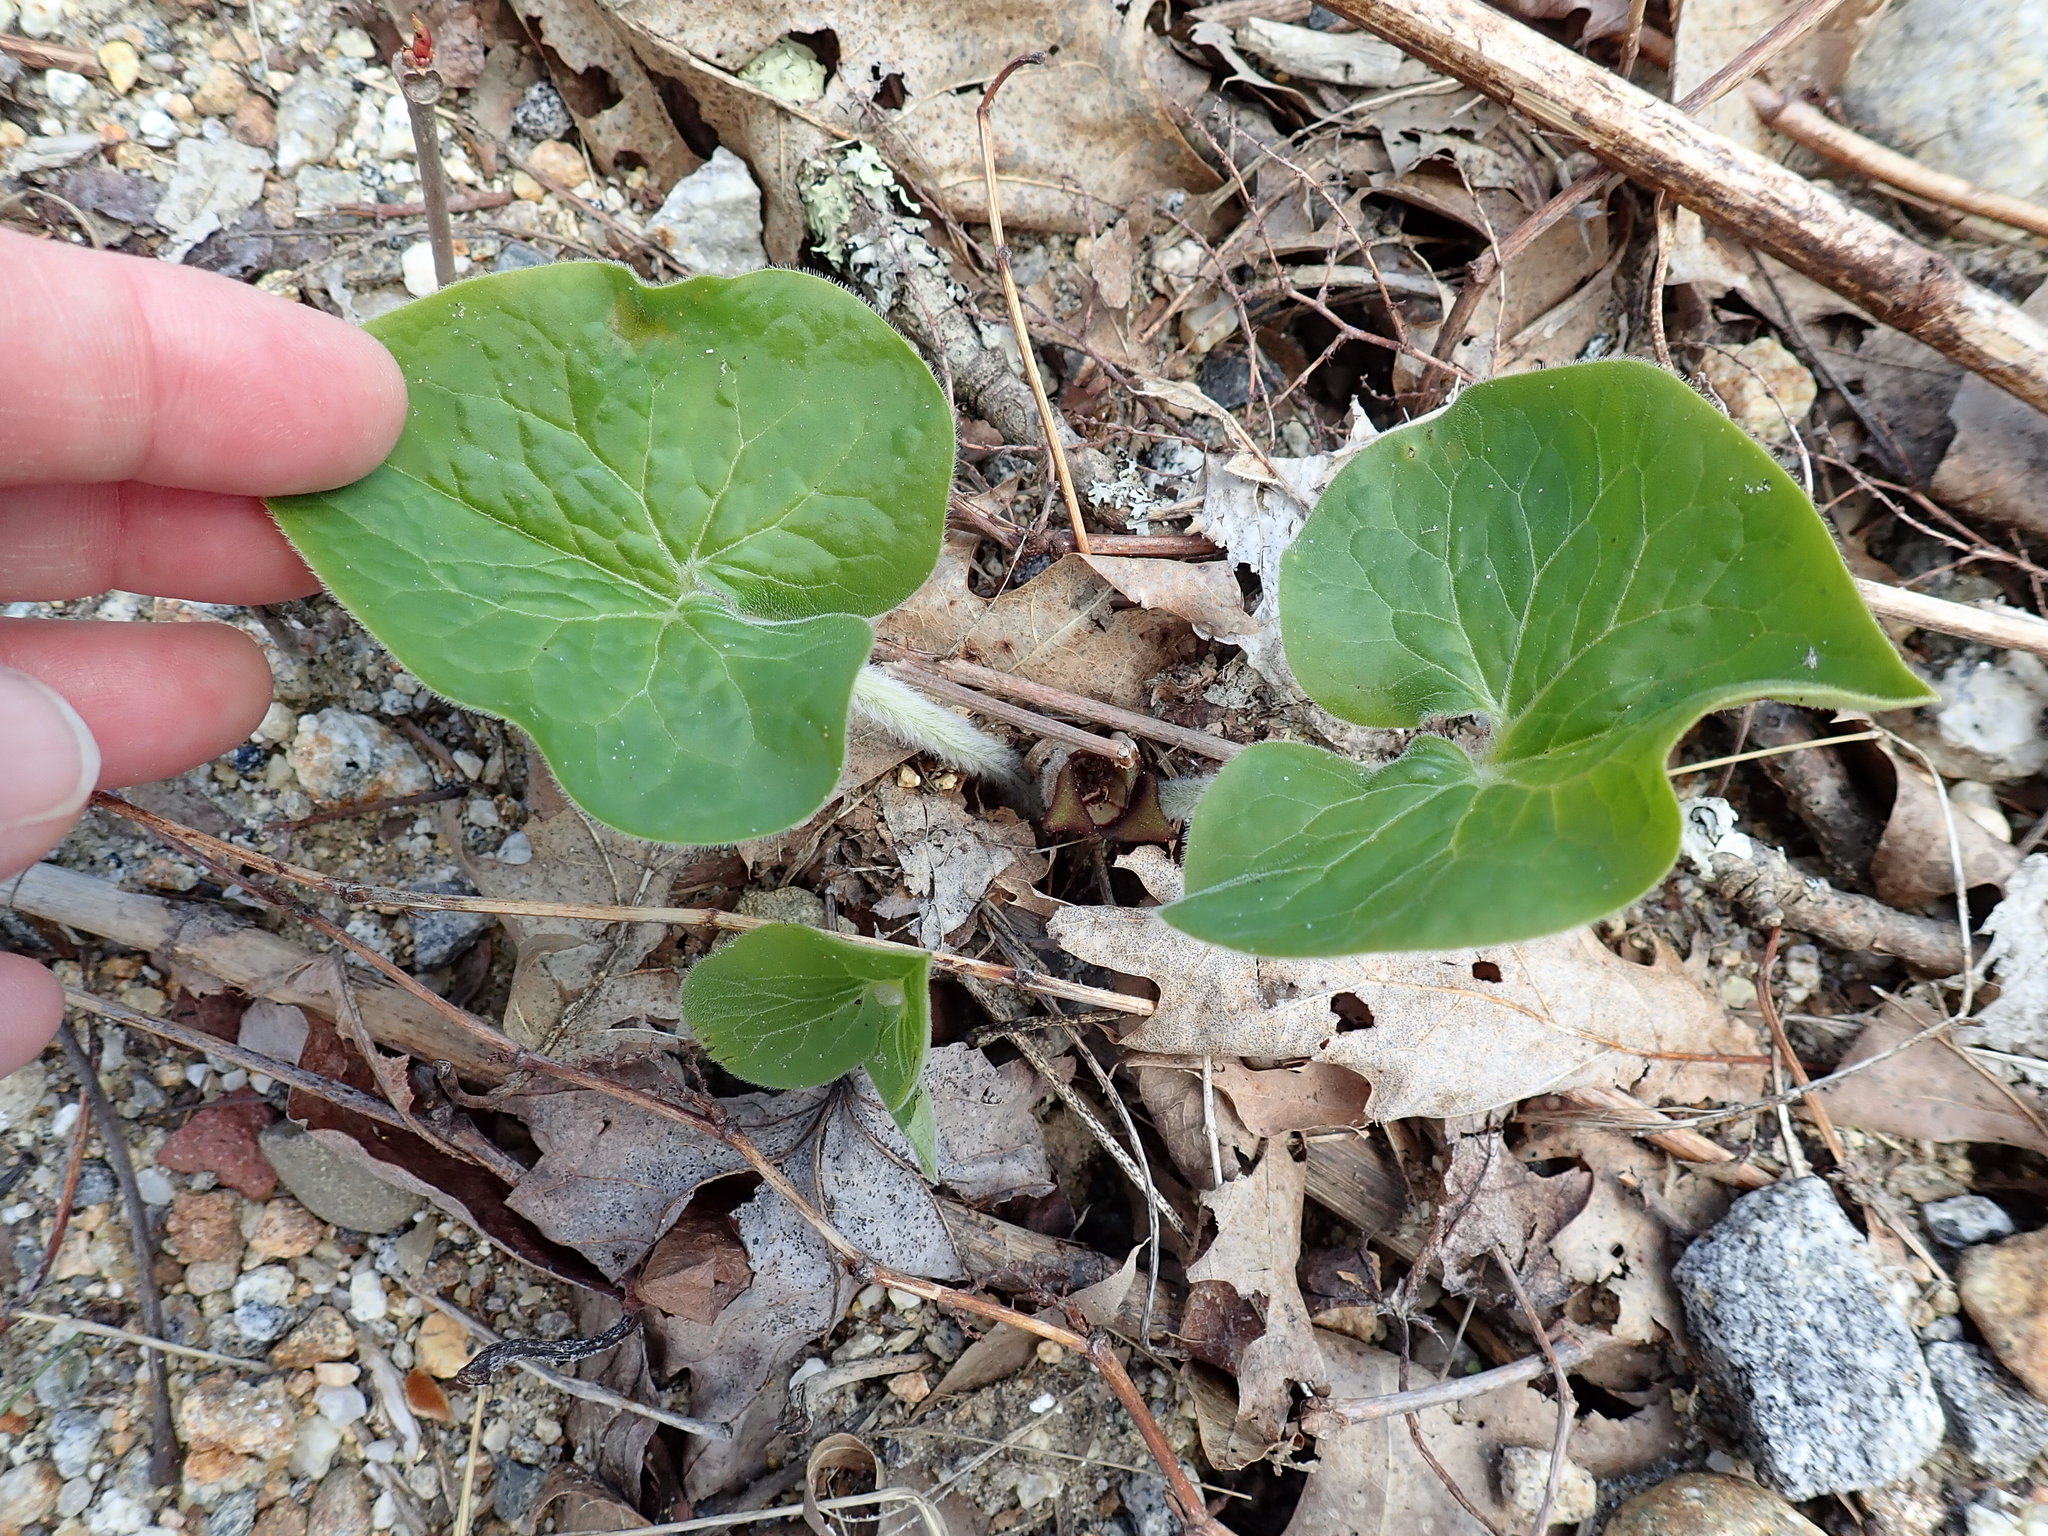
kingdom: Plantae
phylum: Tracheophyta
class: Magnoliopsida
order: Piperales
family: Aristolochiaceae
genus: Asarum
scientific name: Asarum canadense
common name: Wild ginger
